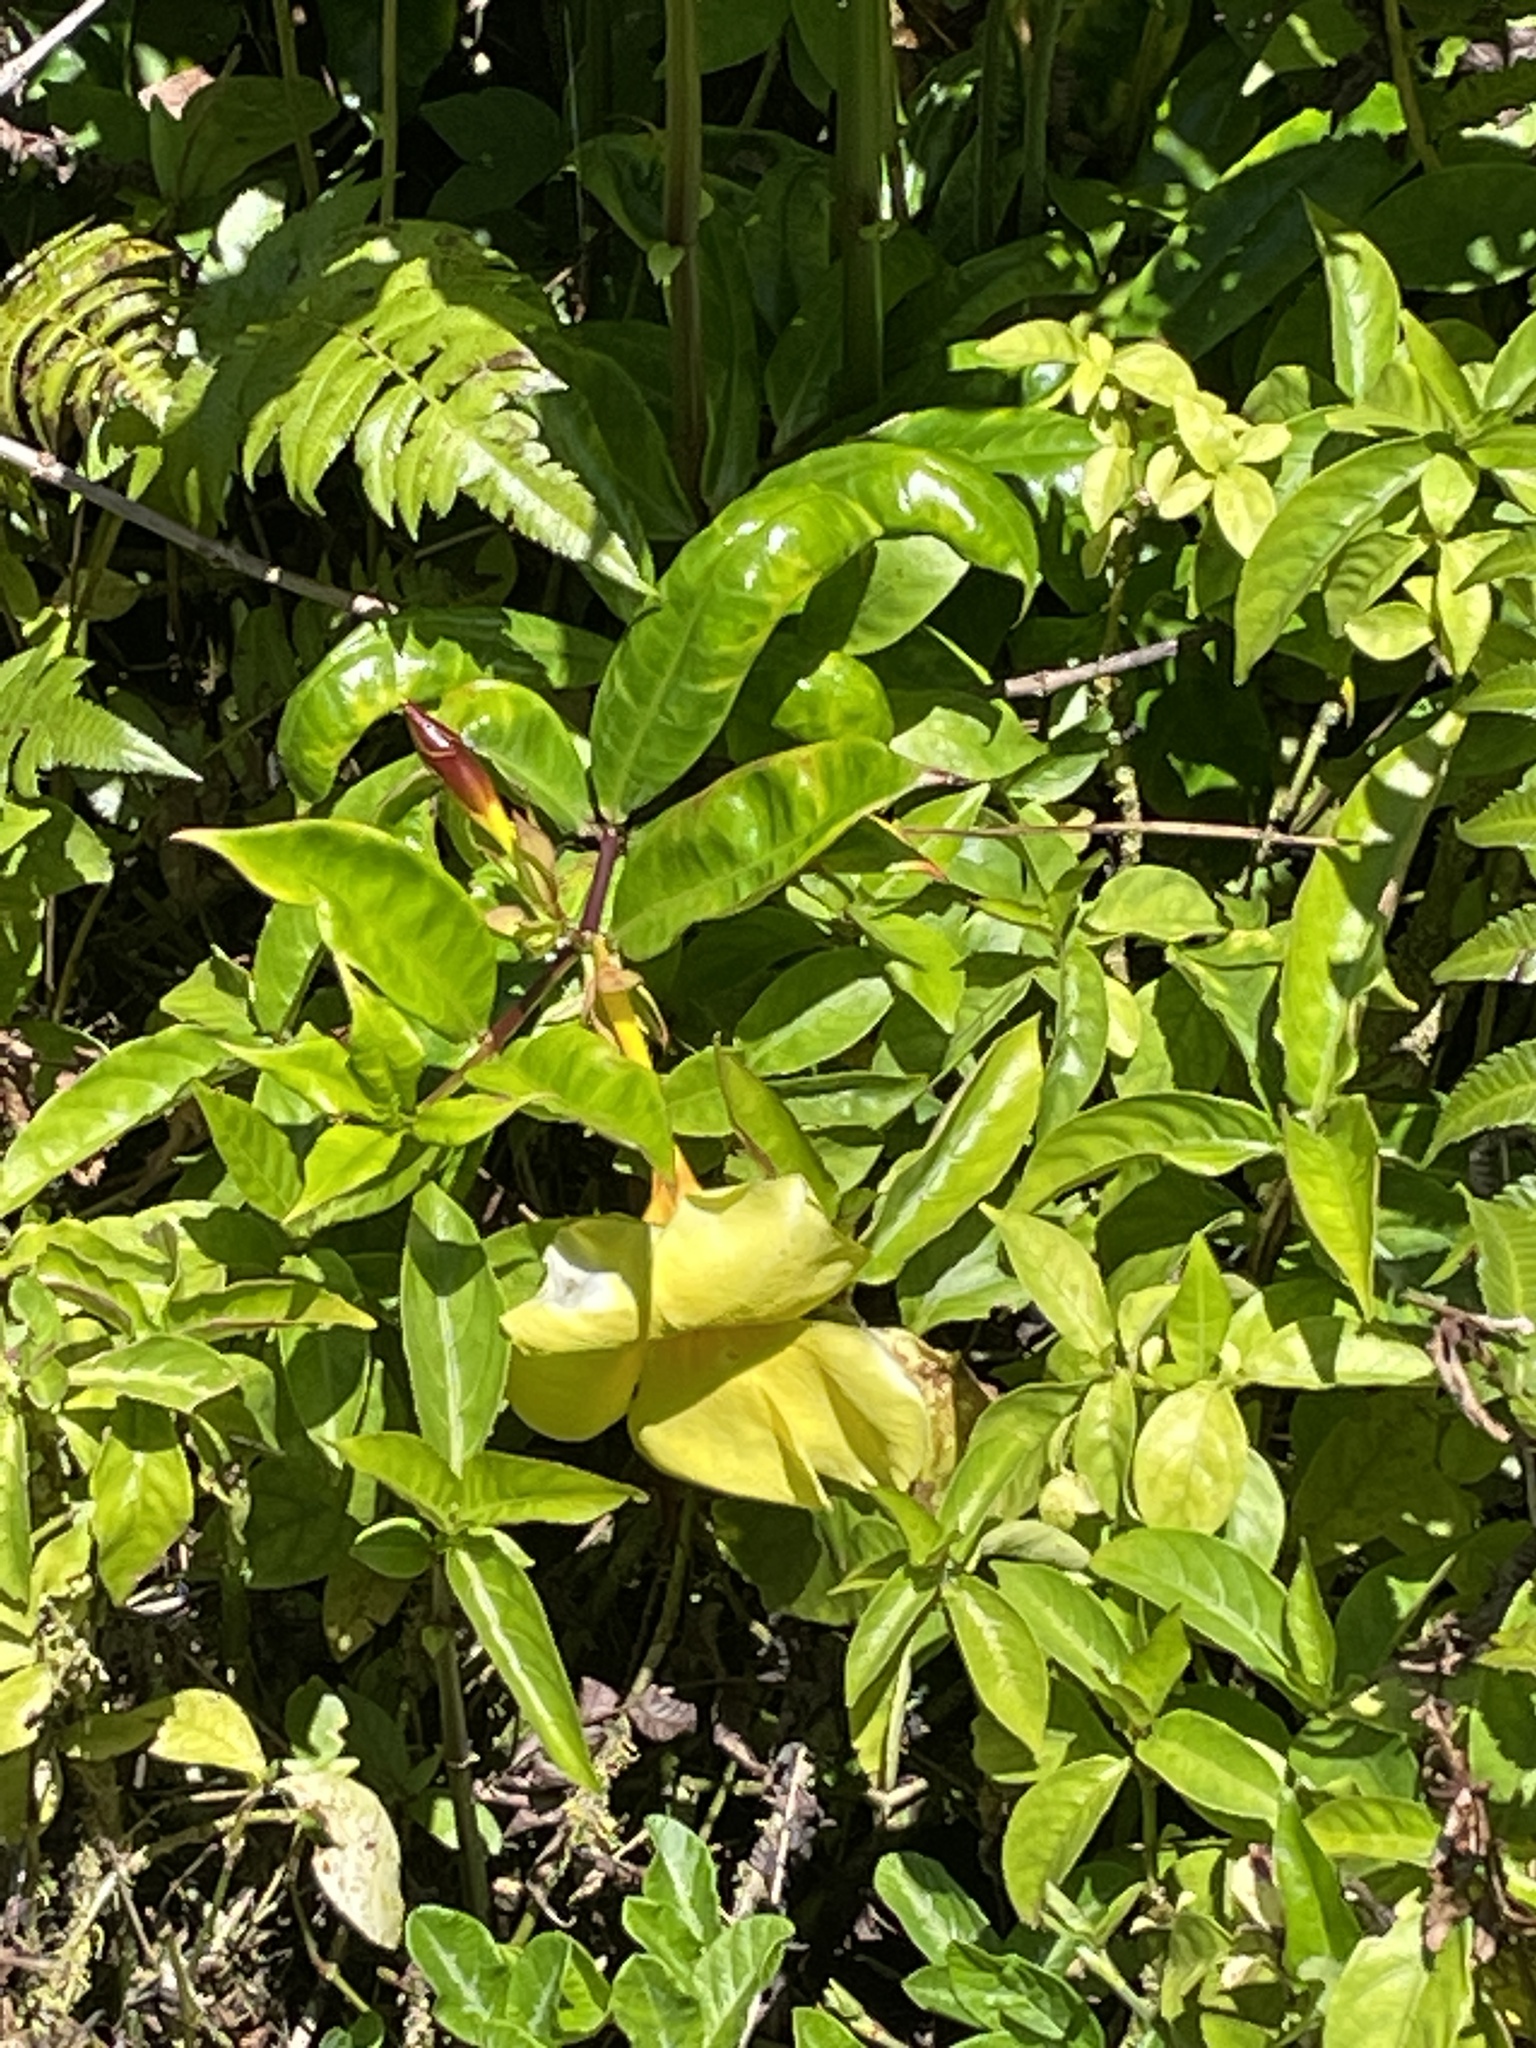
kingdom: Plantae
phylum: Tracheophyta
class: Magnoliopsida
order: Gentianales
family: Apocynaceae
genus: Allamanda
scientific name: Allamanda cathartica
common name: Golden trumpet
